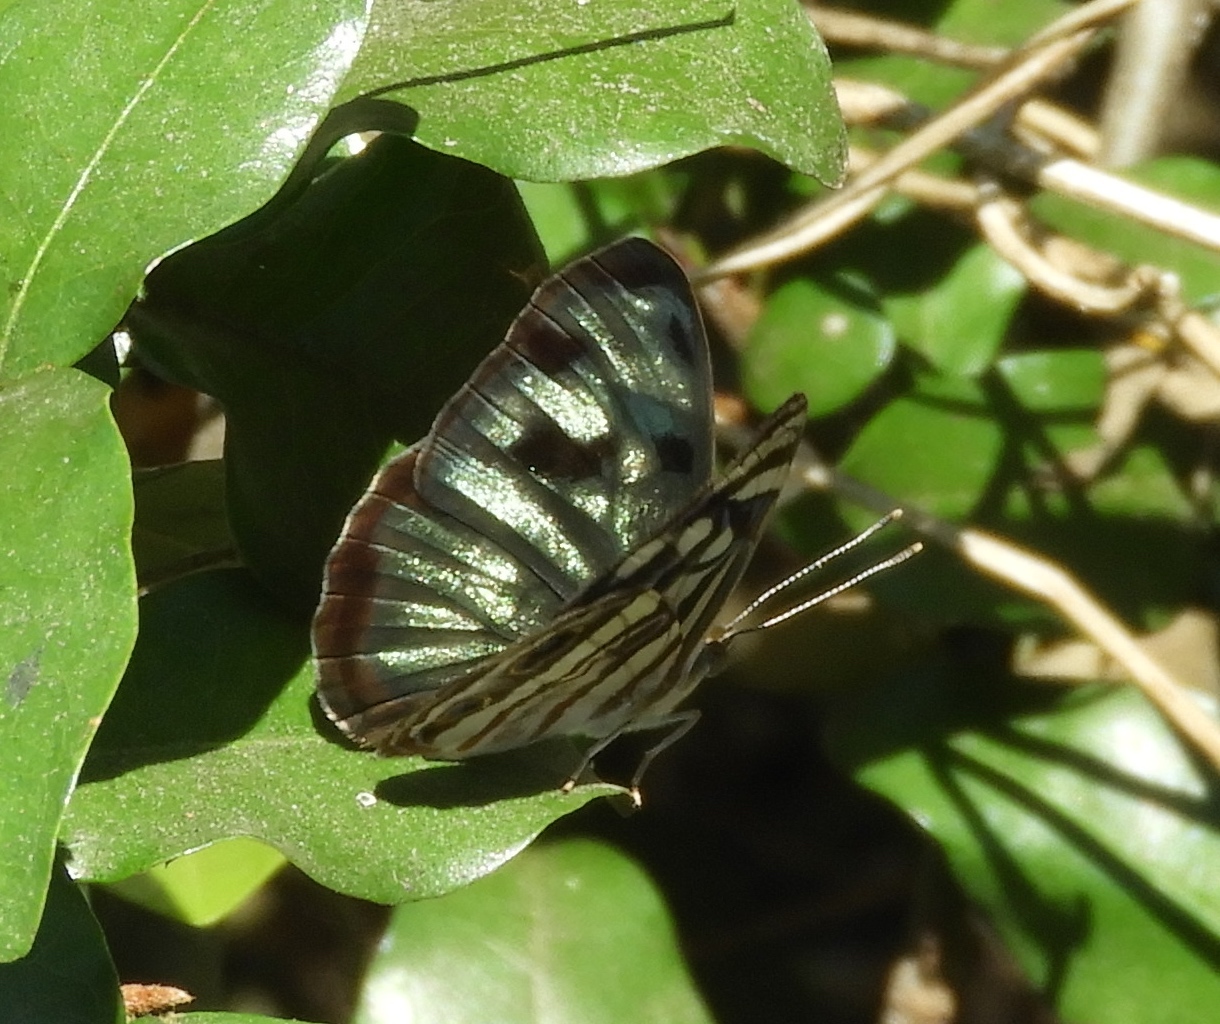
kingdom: Animalia
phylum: Arthropoda
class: Insecta
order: Lepidoptera
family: Nymphalidae
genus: Dynamine
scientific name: Dynamine mylitta
